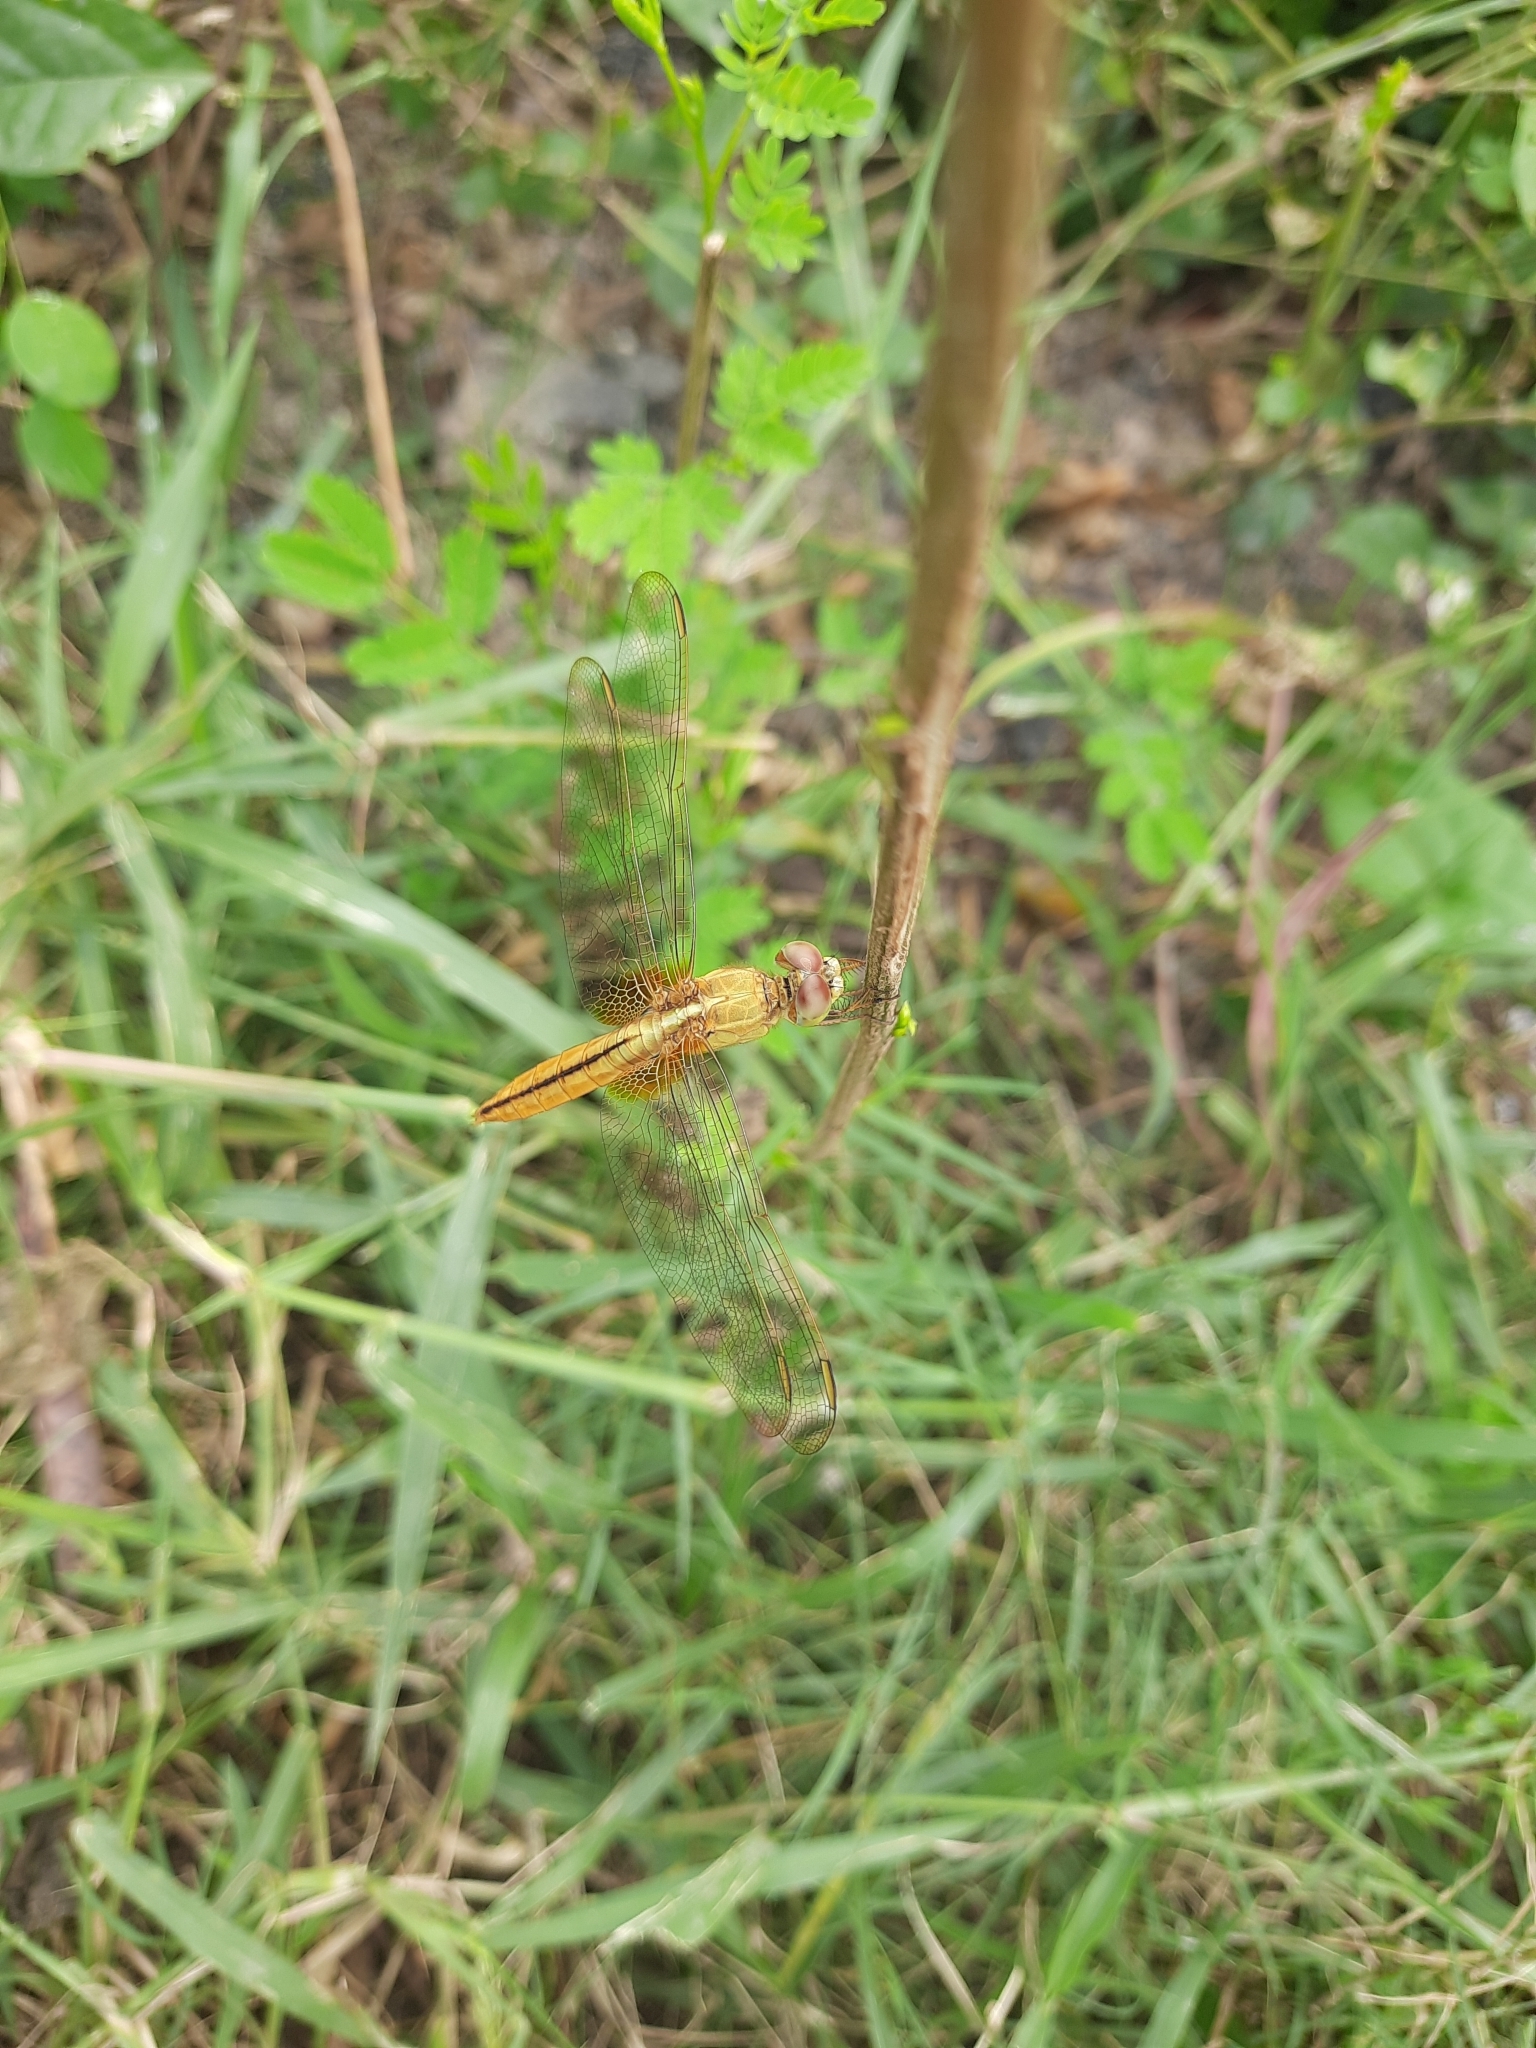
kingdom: Animalia
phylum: Arthropoda
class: Insecta
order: Odonata
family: Libellulidae
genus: Crocothemis
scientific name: Crocothemis servilia
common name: Scarlet skimmer
